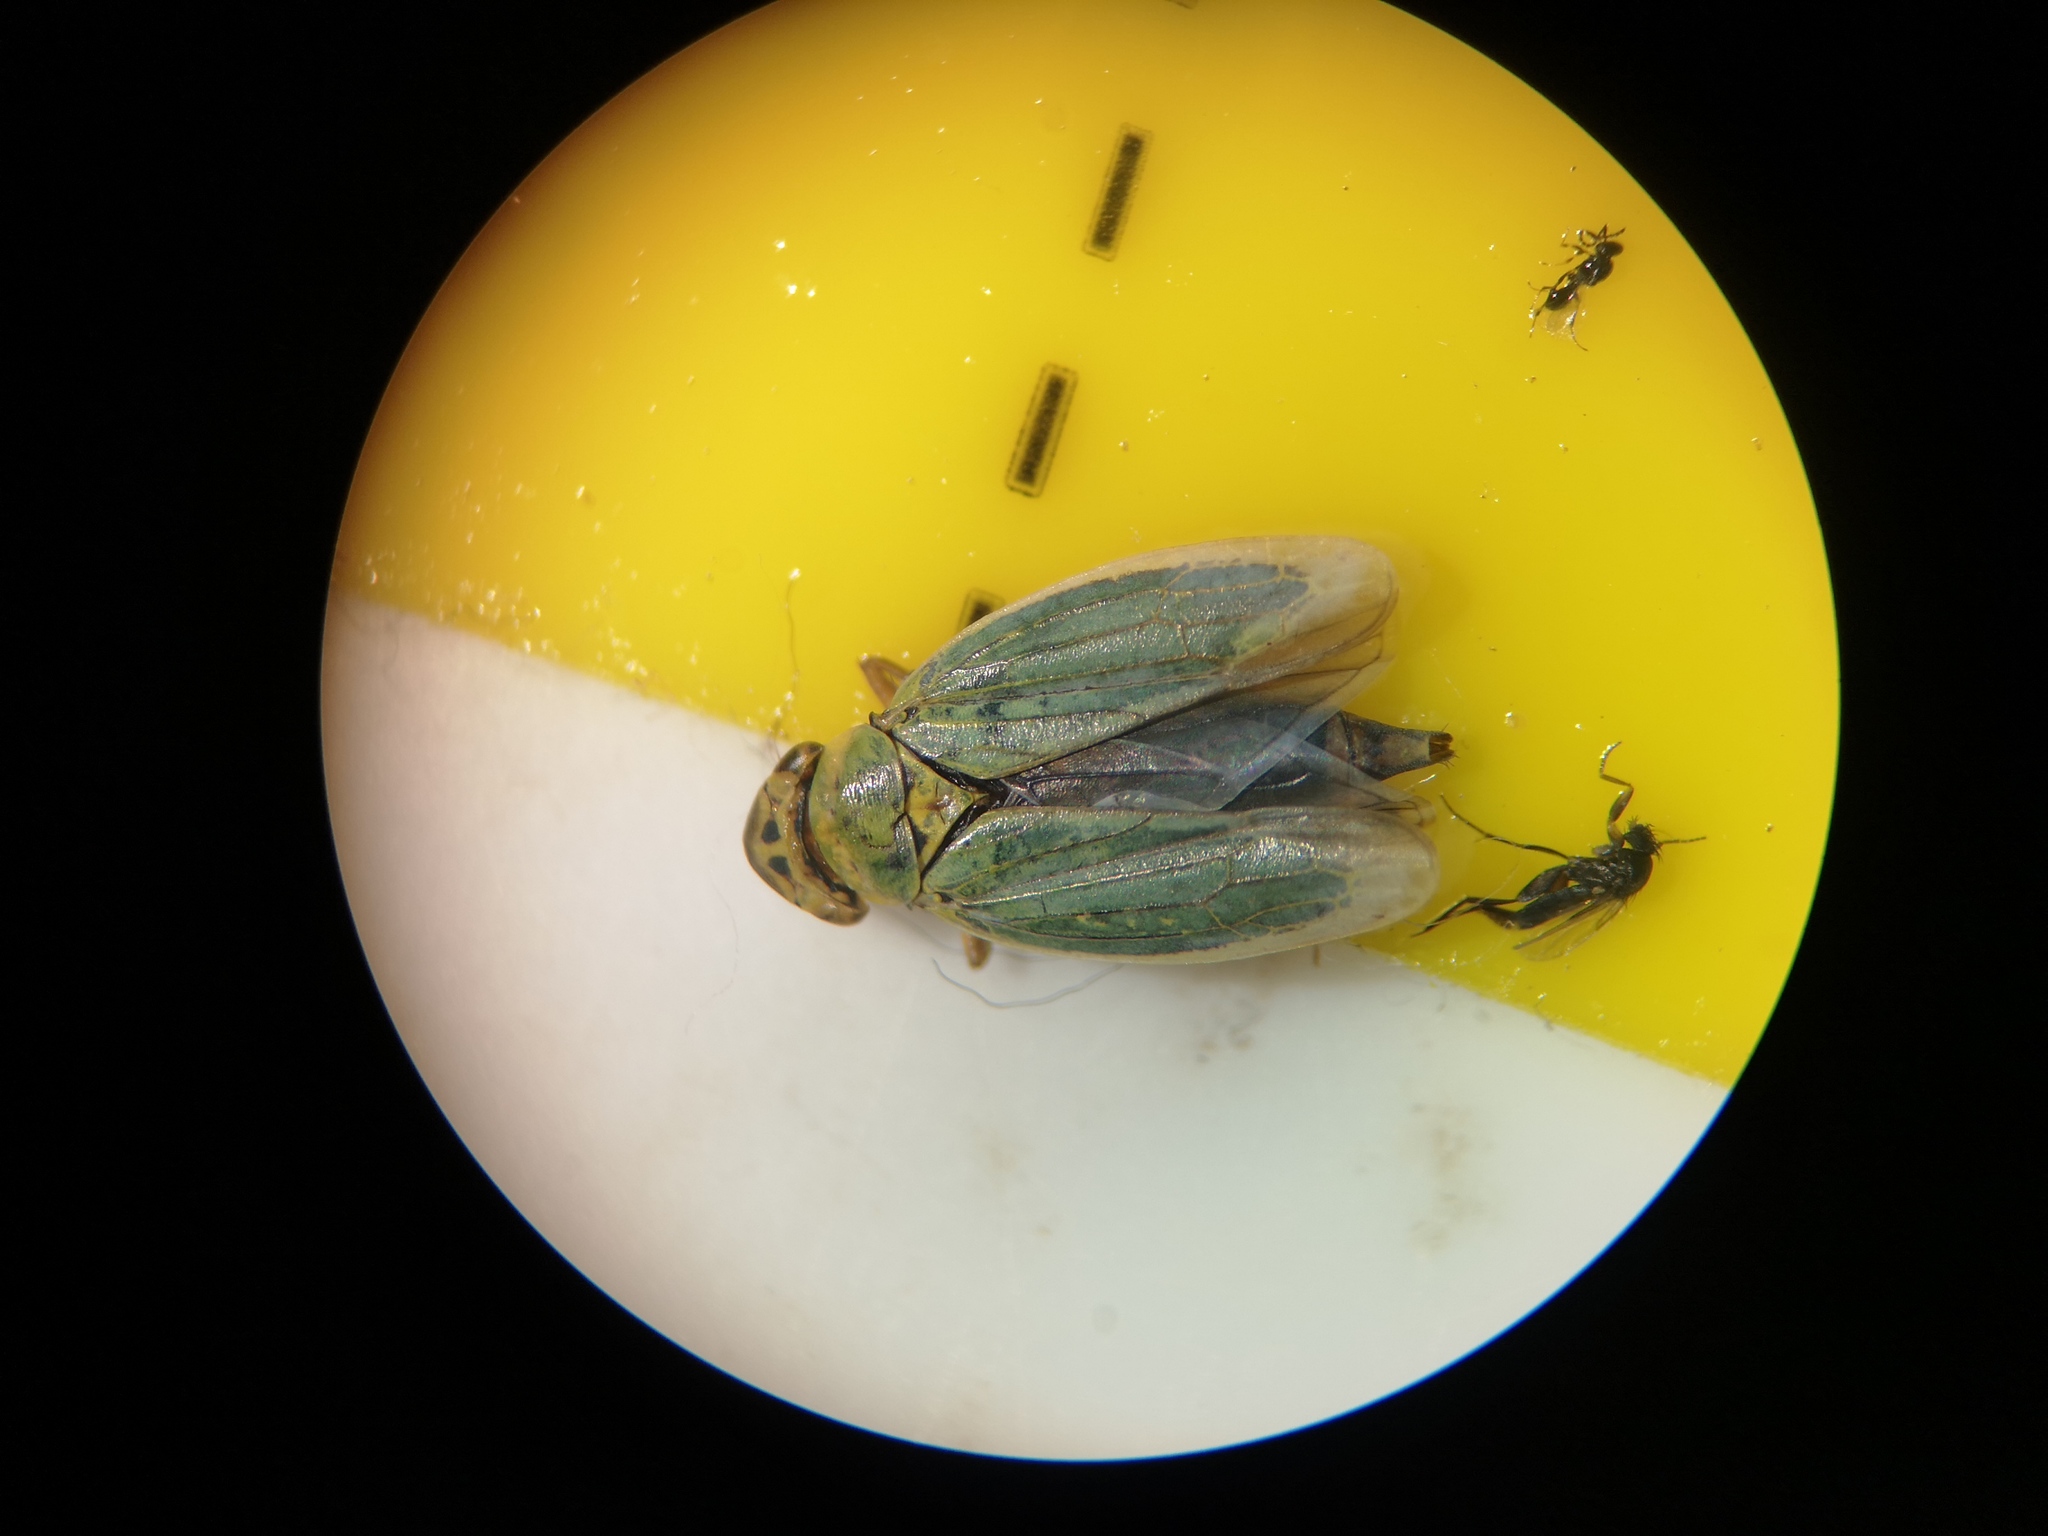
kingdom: Animalia
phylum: Arthropoda
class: Insecta
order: Hemiptera
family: Cicadellidae
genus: Cicadella
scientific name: Cicadella viridis
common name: Leafhopper
